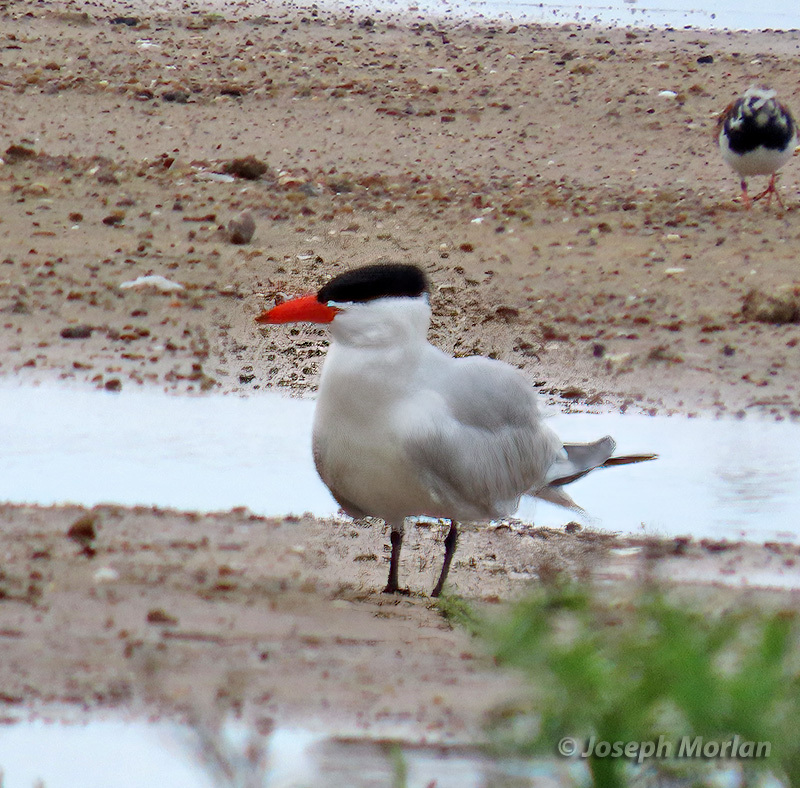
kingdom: Animalia
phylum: Chordata
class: Aves
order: Charadriiformes
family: Laridae
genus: Hydroprogne
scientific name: Hydroprogne caspia
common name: Caspian tern
